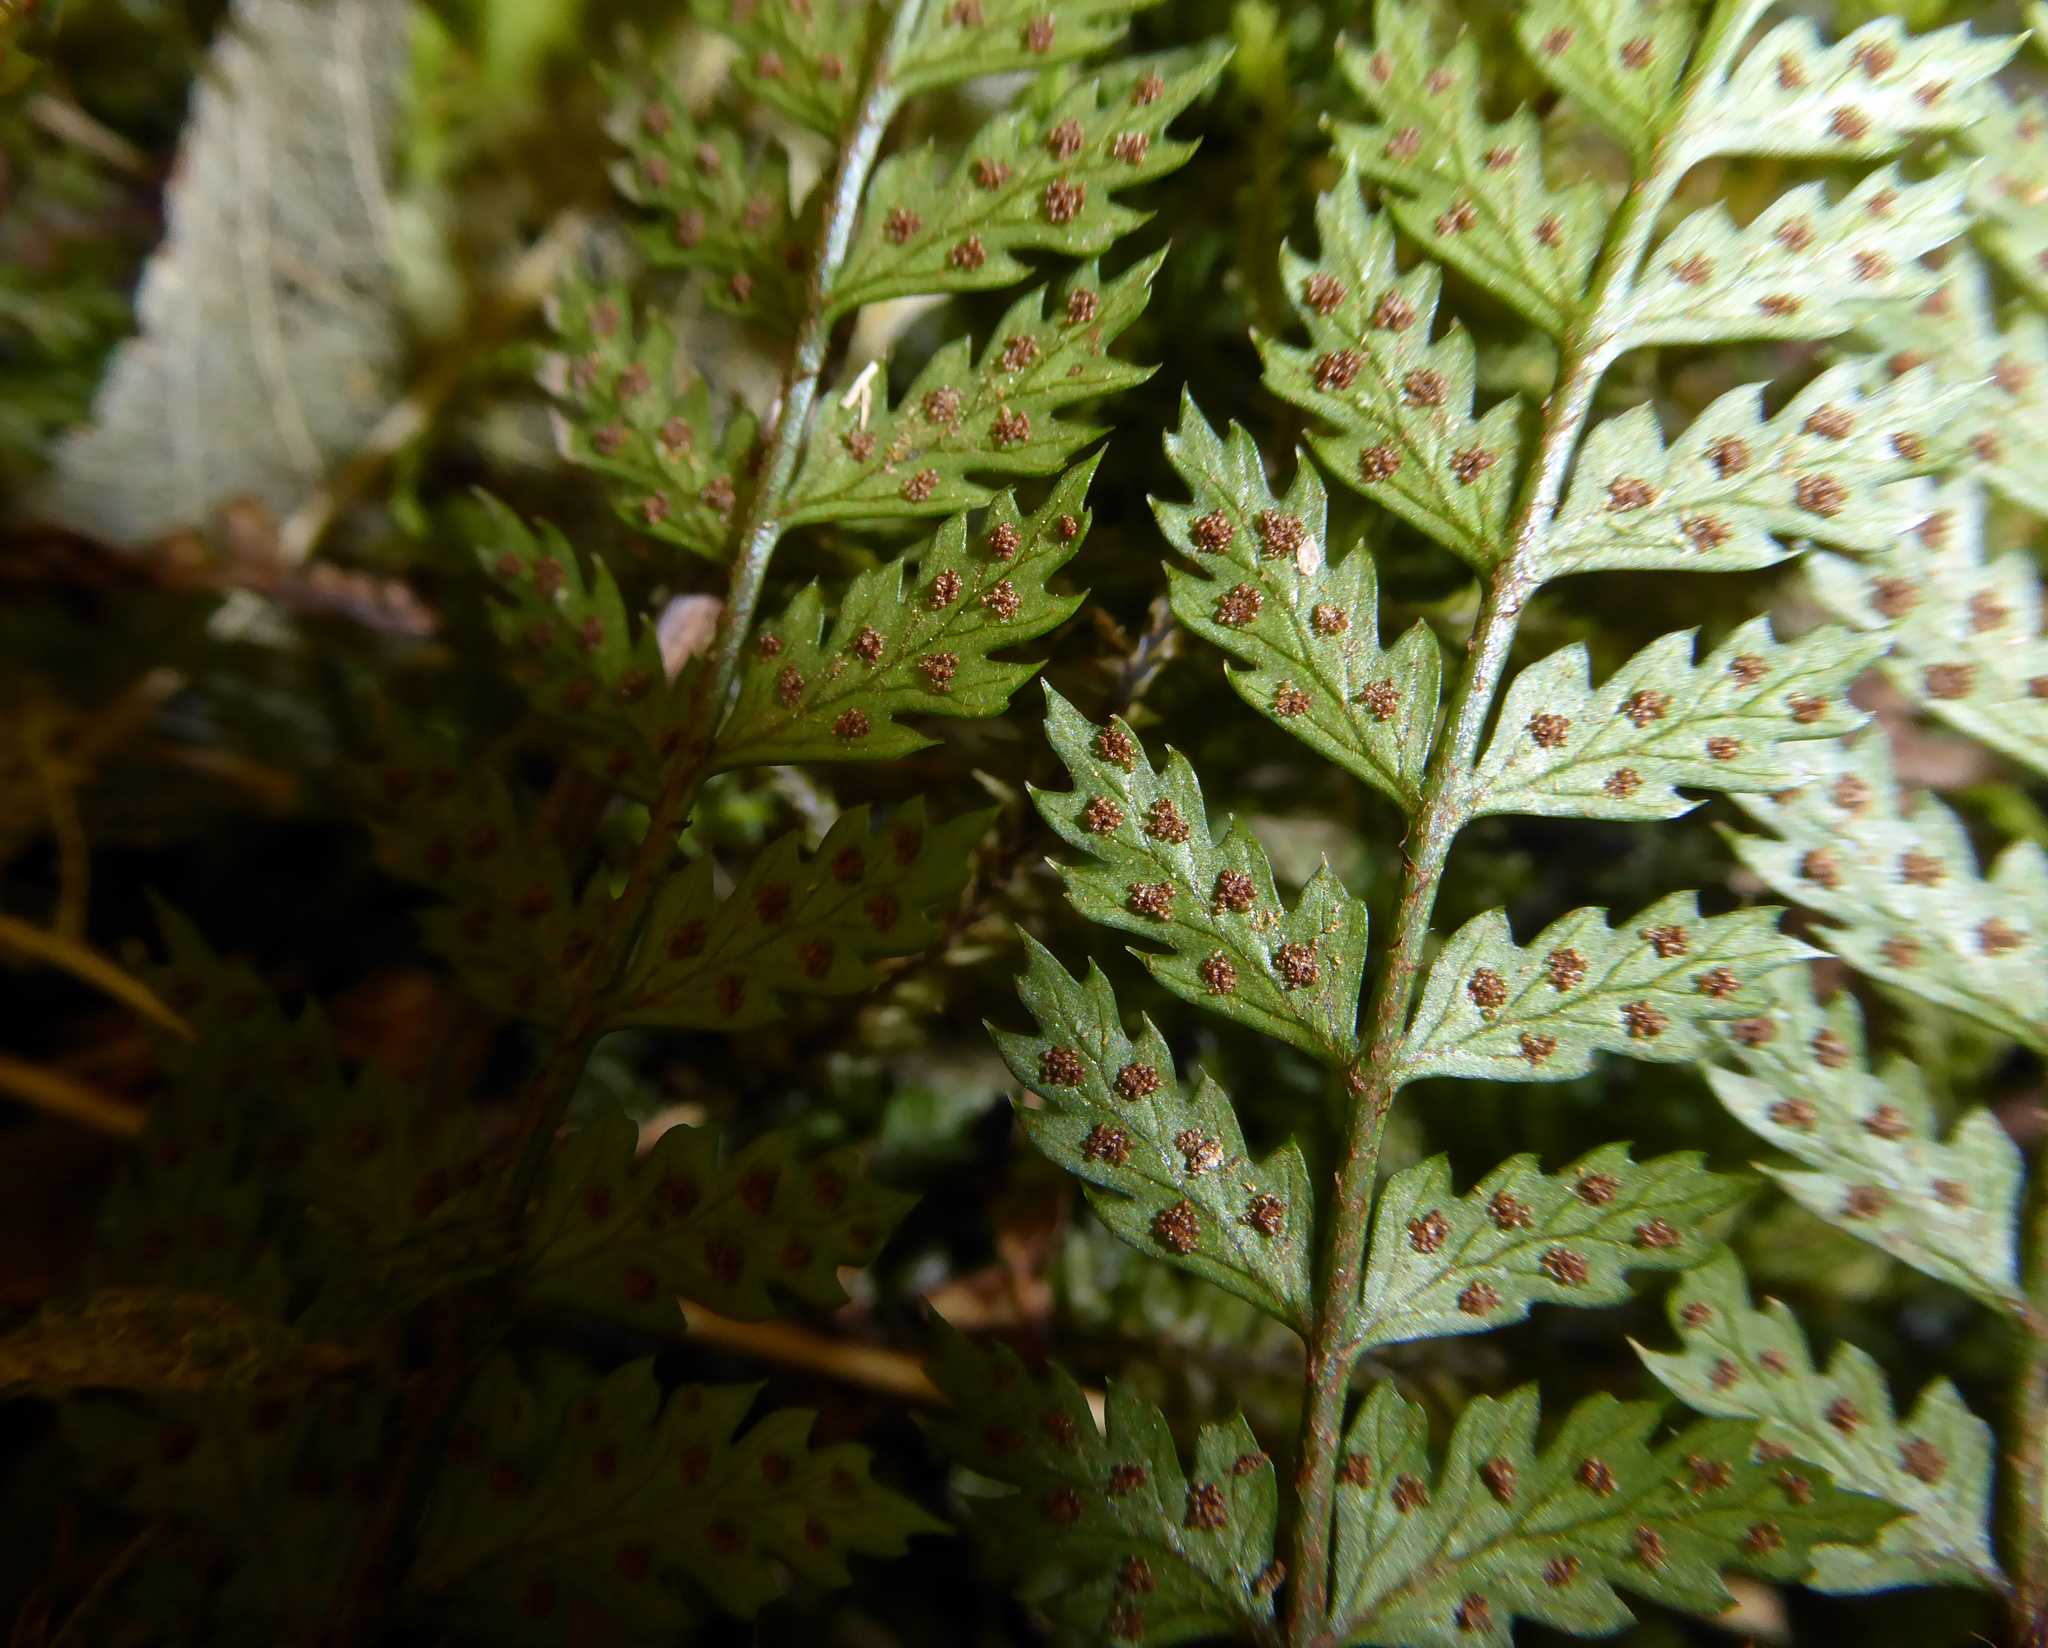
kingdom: Plantae
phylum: Tracheophyta
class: Polypodiopsida
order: Polypodiales
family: Dryopteridaceae
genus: Polystichum
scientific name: Polystichum silvaticum
